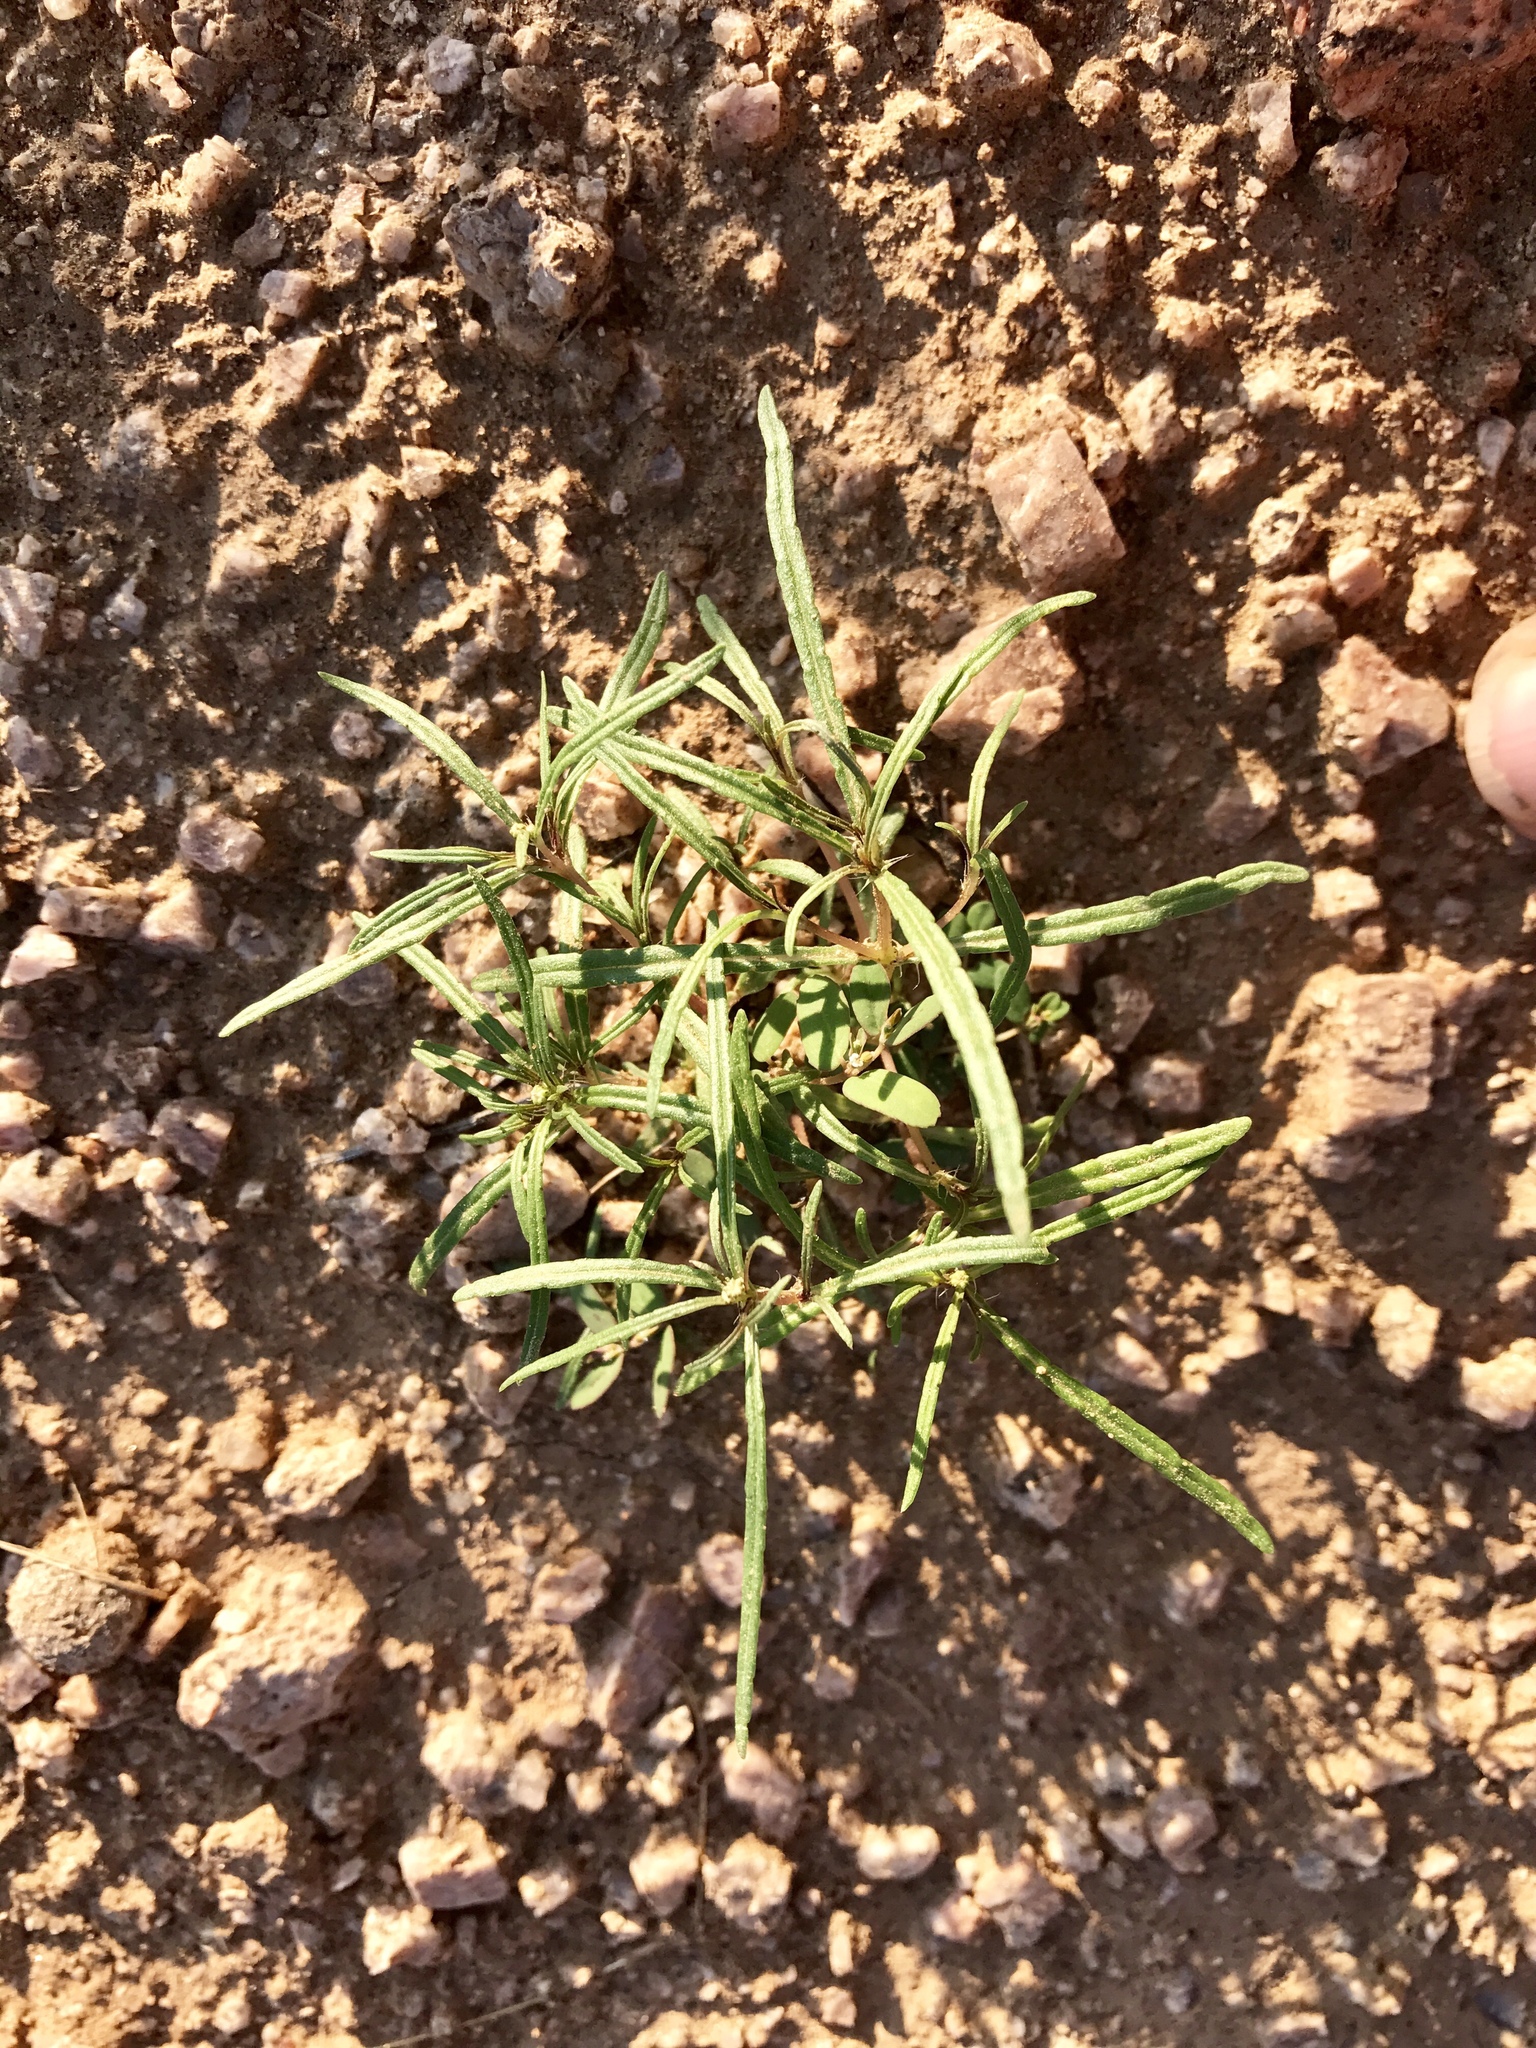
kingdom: Plantae
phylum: Tracheophyta
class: Magnoliopsida
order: Asterales
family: Asteraceae
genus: Pectis
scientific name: Pectis papposa
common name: Many-bristle chinchweed
